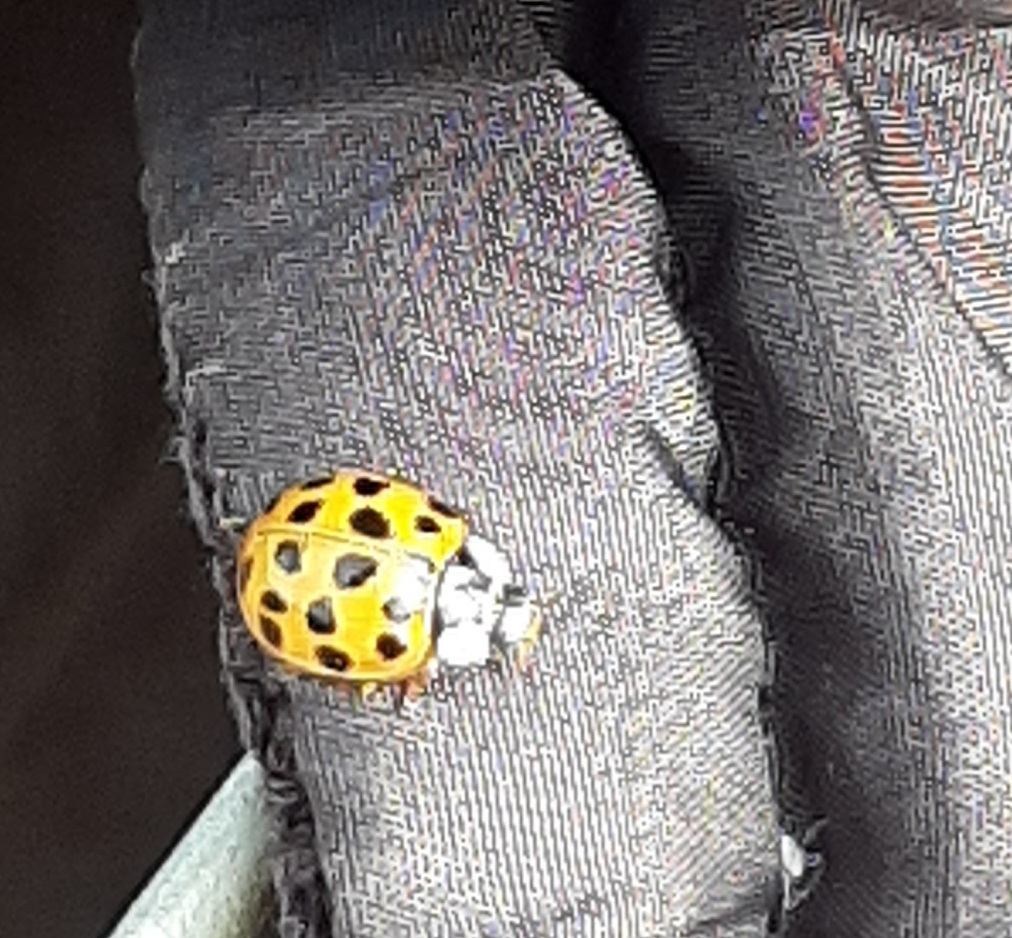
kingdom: Animalia
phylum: Arthropoda
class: Insecta
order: Coleoptera
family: Coccinellidae
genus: Harmonia
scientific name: Harmonia axyridis
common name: Harlequin ladybird
